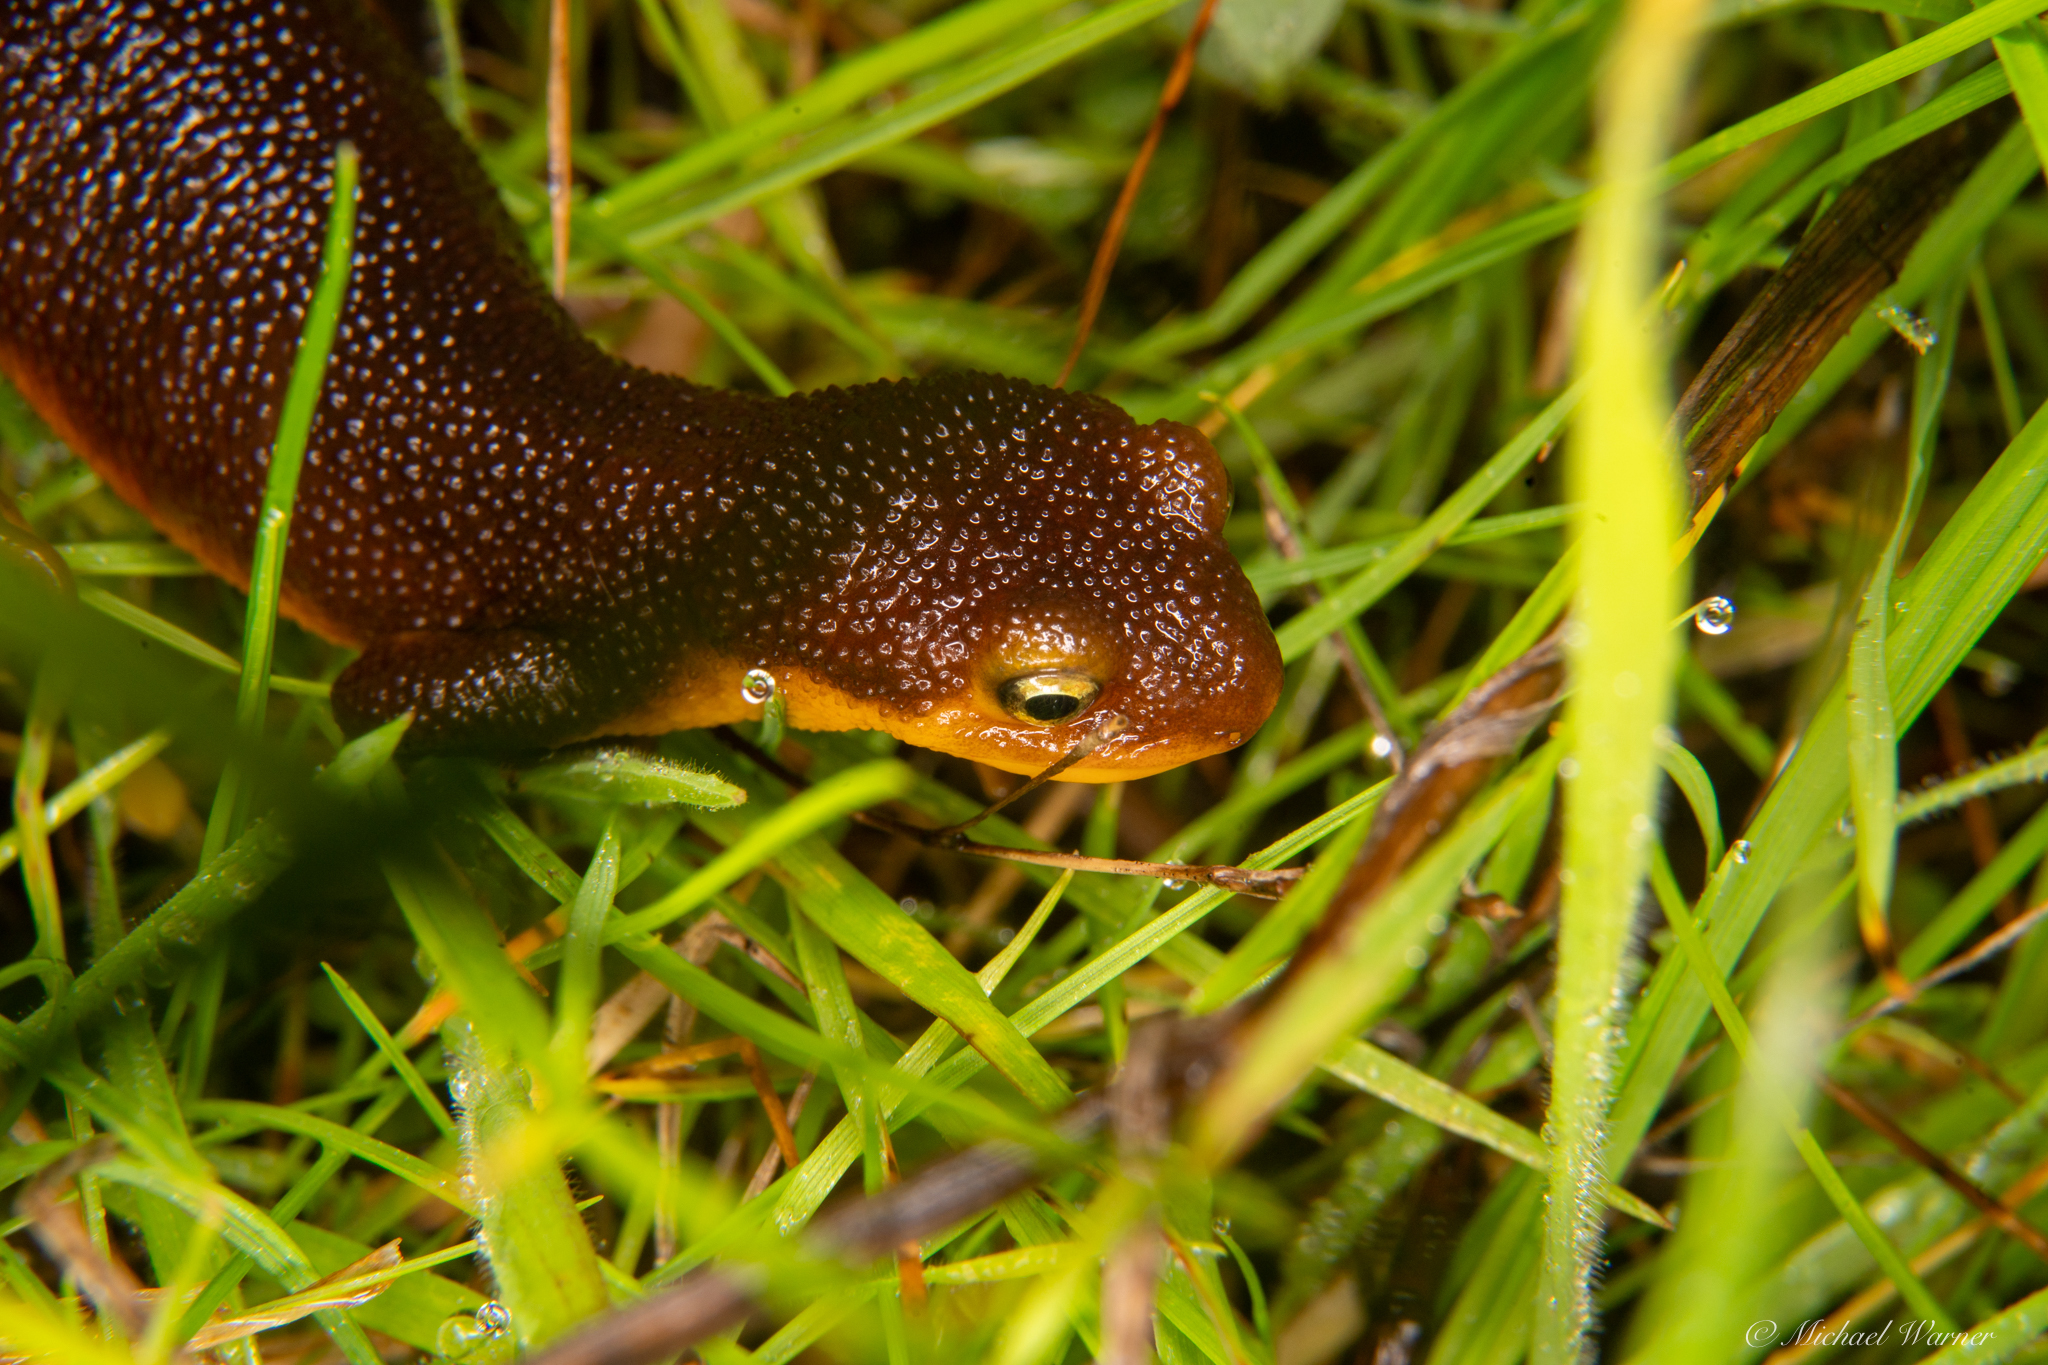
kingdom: Animalia
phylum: Chordata
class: Amphibia
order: Caudata
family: Salamandridae
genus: Taricha
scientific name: Taricha torosa
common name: California newt
